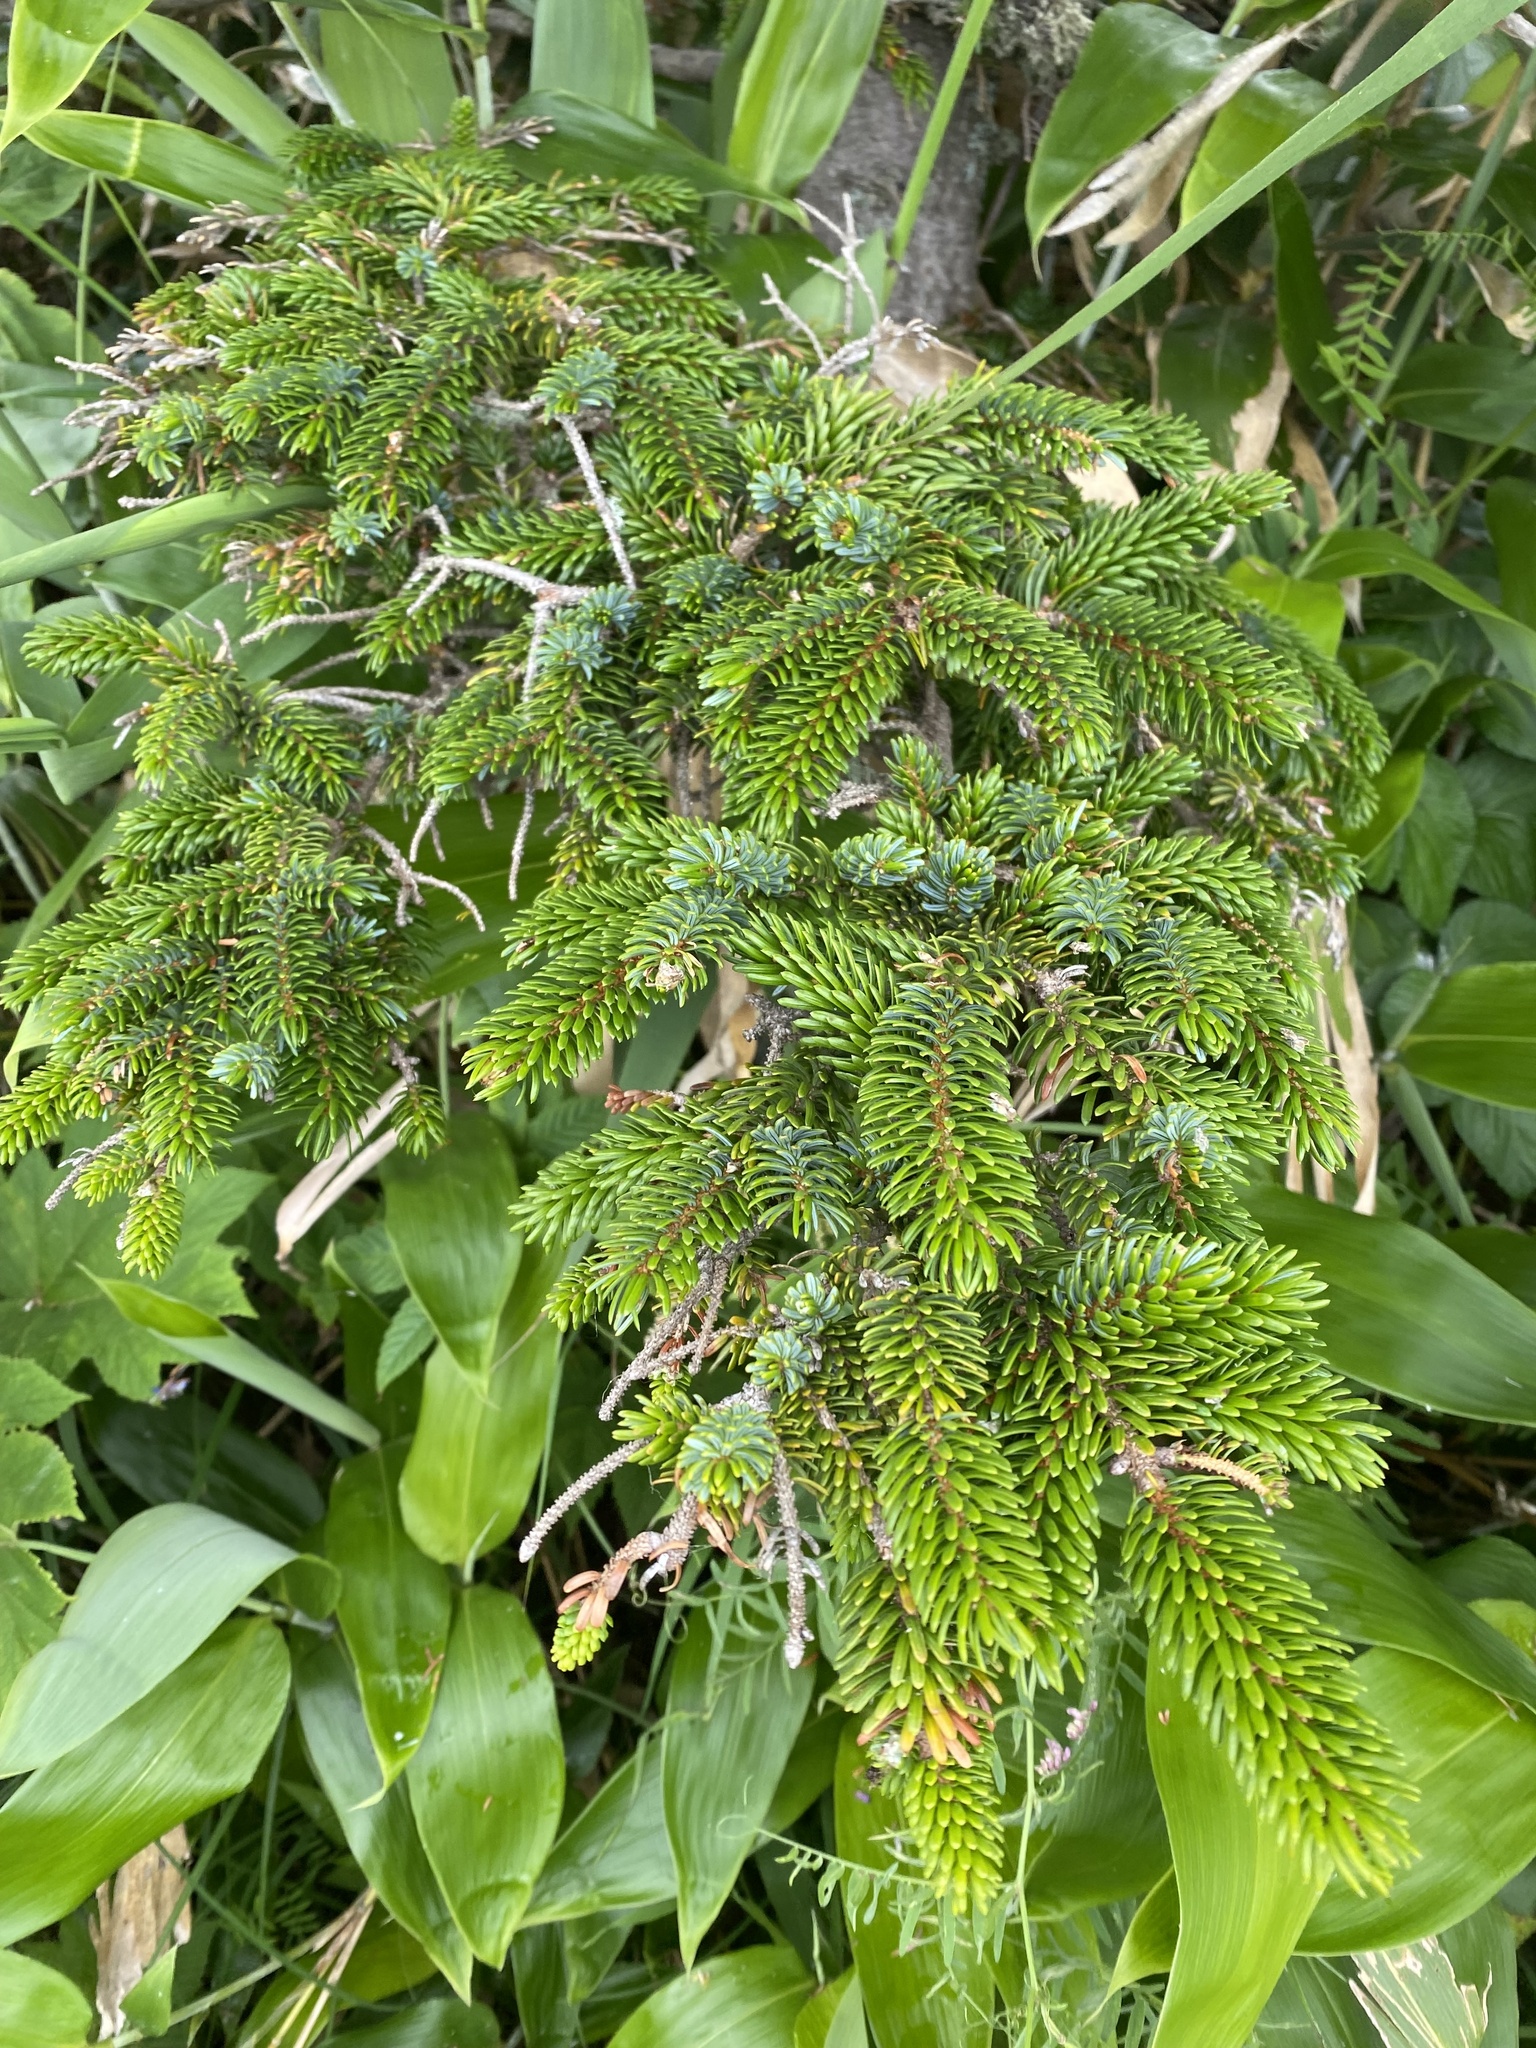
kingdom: Plantae
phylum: Tracheophyta
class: Pinopsida
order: Pinales
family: Pinaceae
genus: Picea
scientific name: Picea jezoensis
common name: Yeddo spruce
